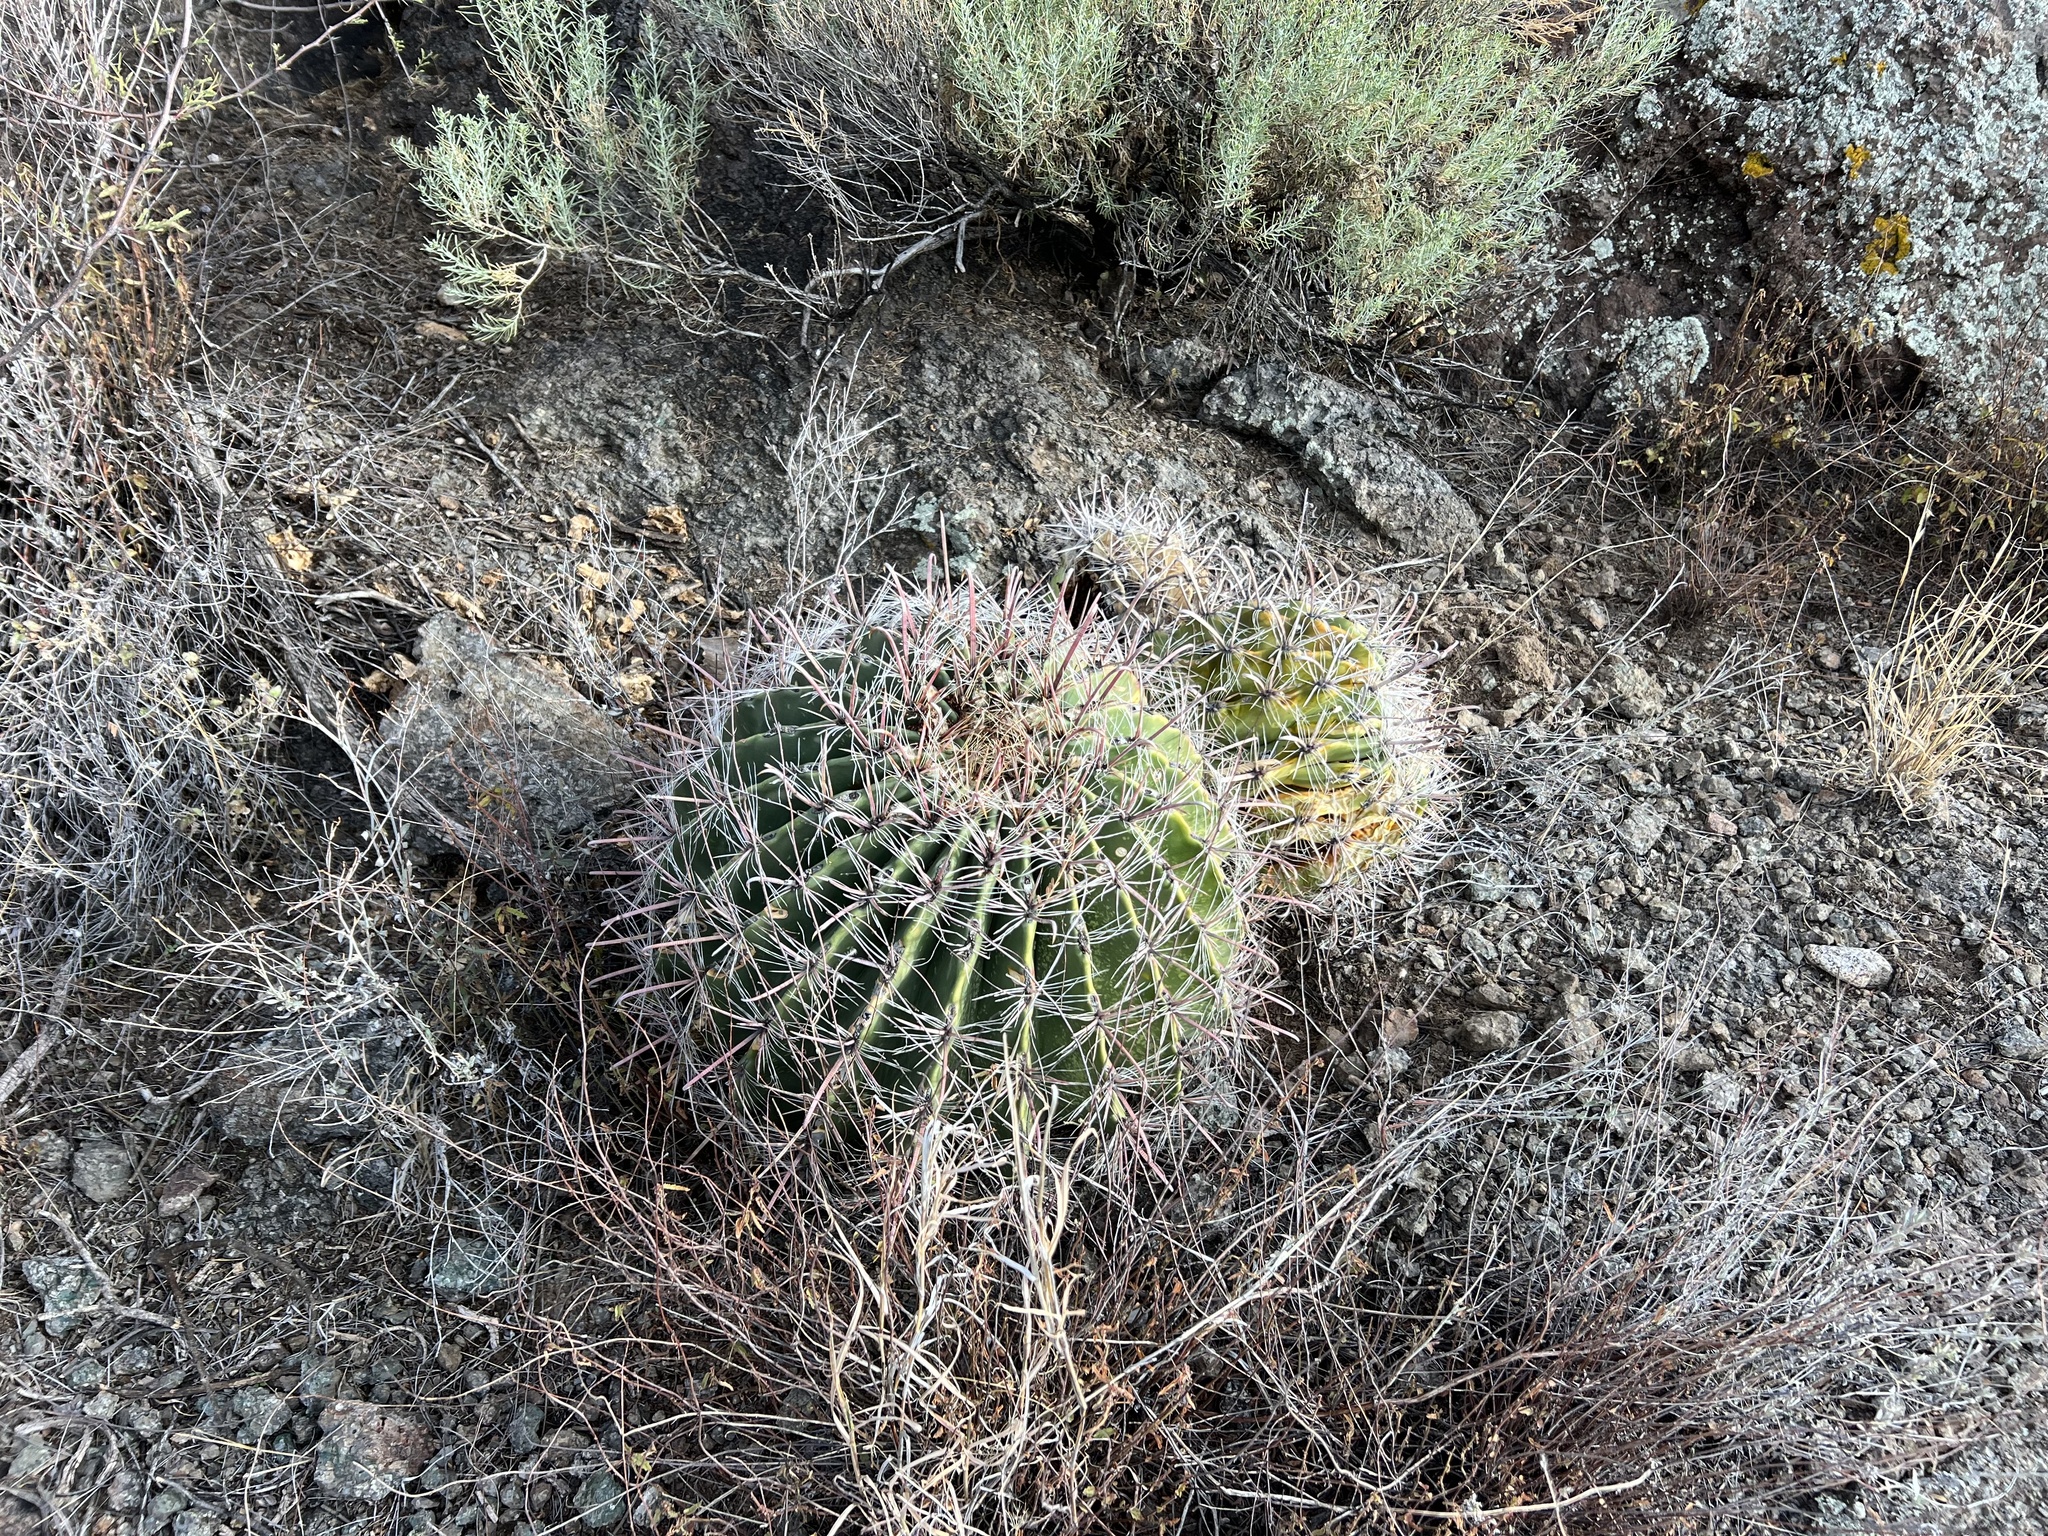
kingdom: Plantae
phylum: Tracheophyta
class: Magnoliopsida
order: Caryophyllales
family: Cactaceae
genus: Ferocactus
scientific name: Ferocactus wislizeni
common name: Candy barrel cactus
